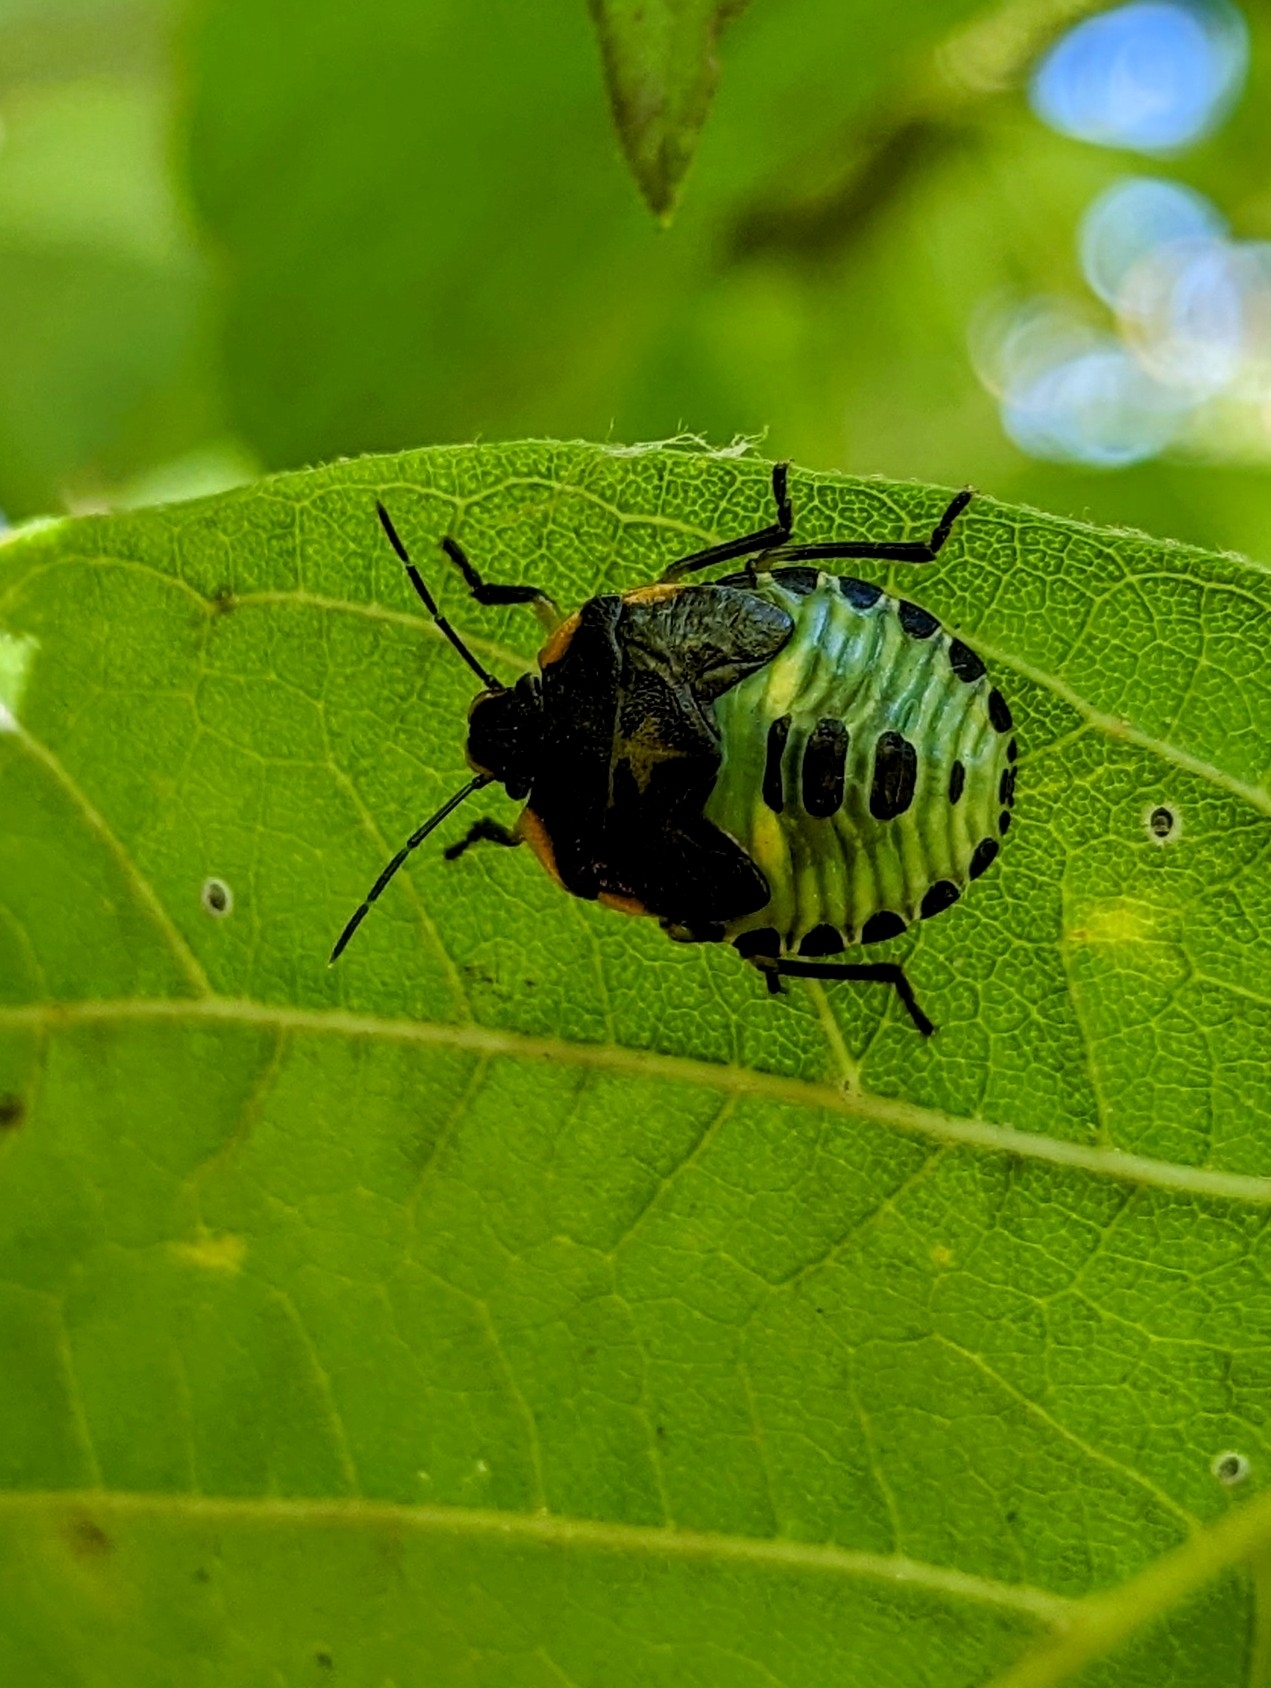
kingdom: Animalia
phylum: Arthropoda
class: Insecta
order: Hemiptera
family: Pentatomidae
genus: Chinavia
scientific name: Chinavia hilaris
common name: Green stink bug
